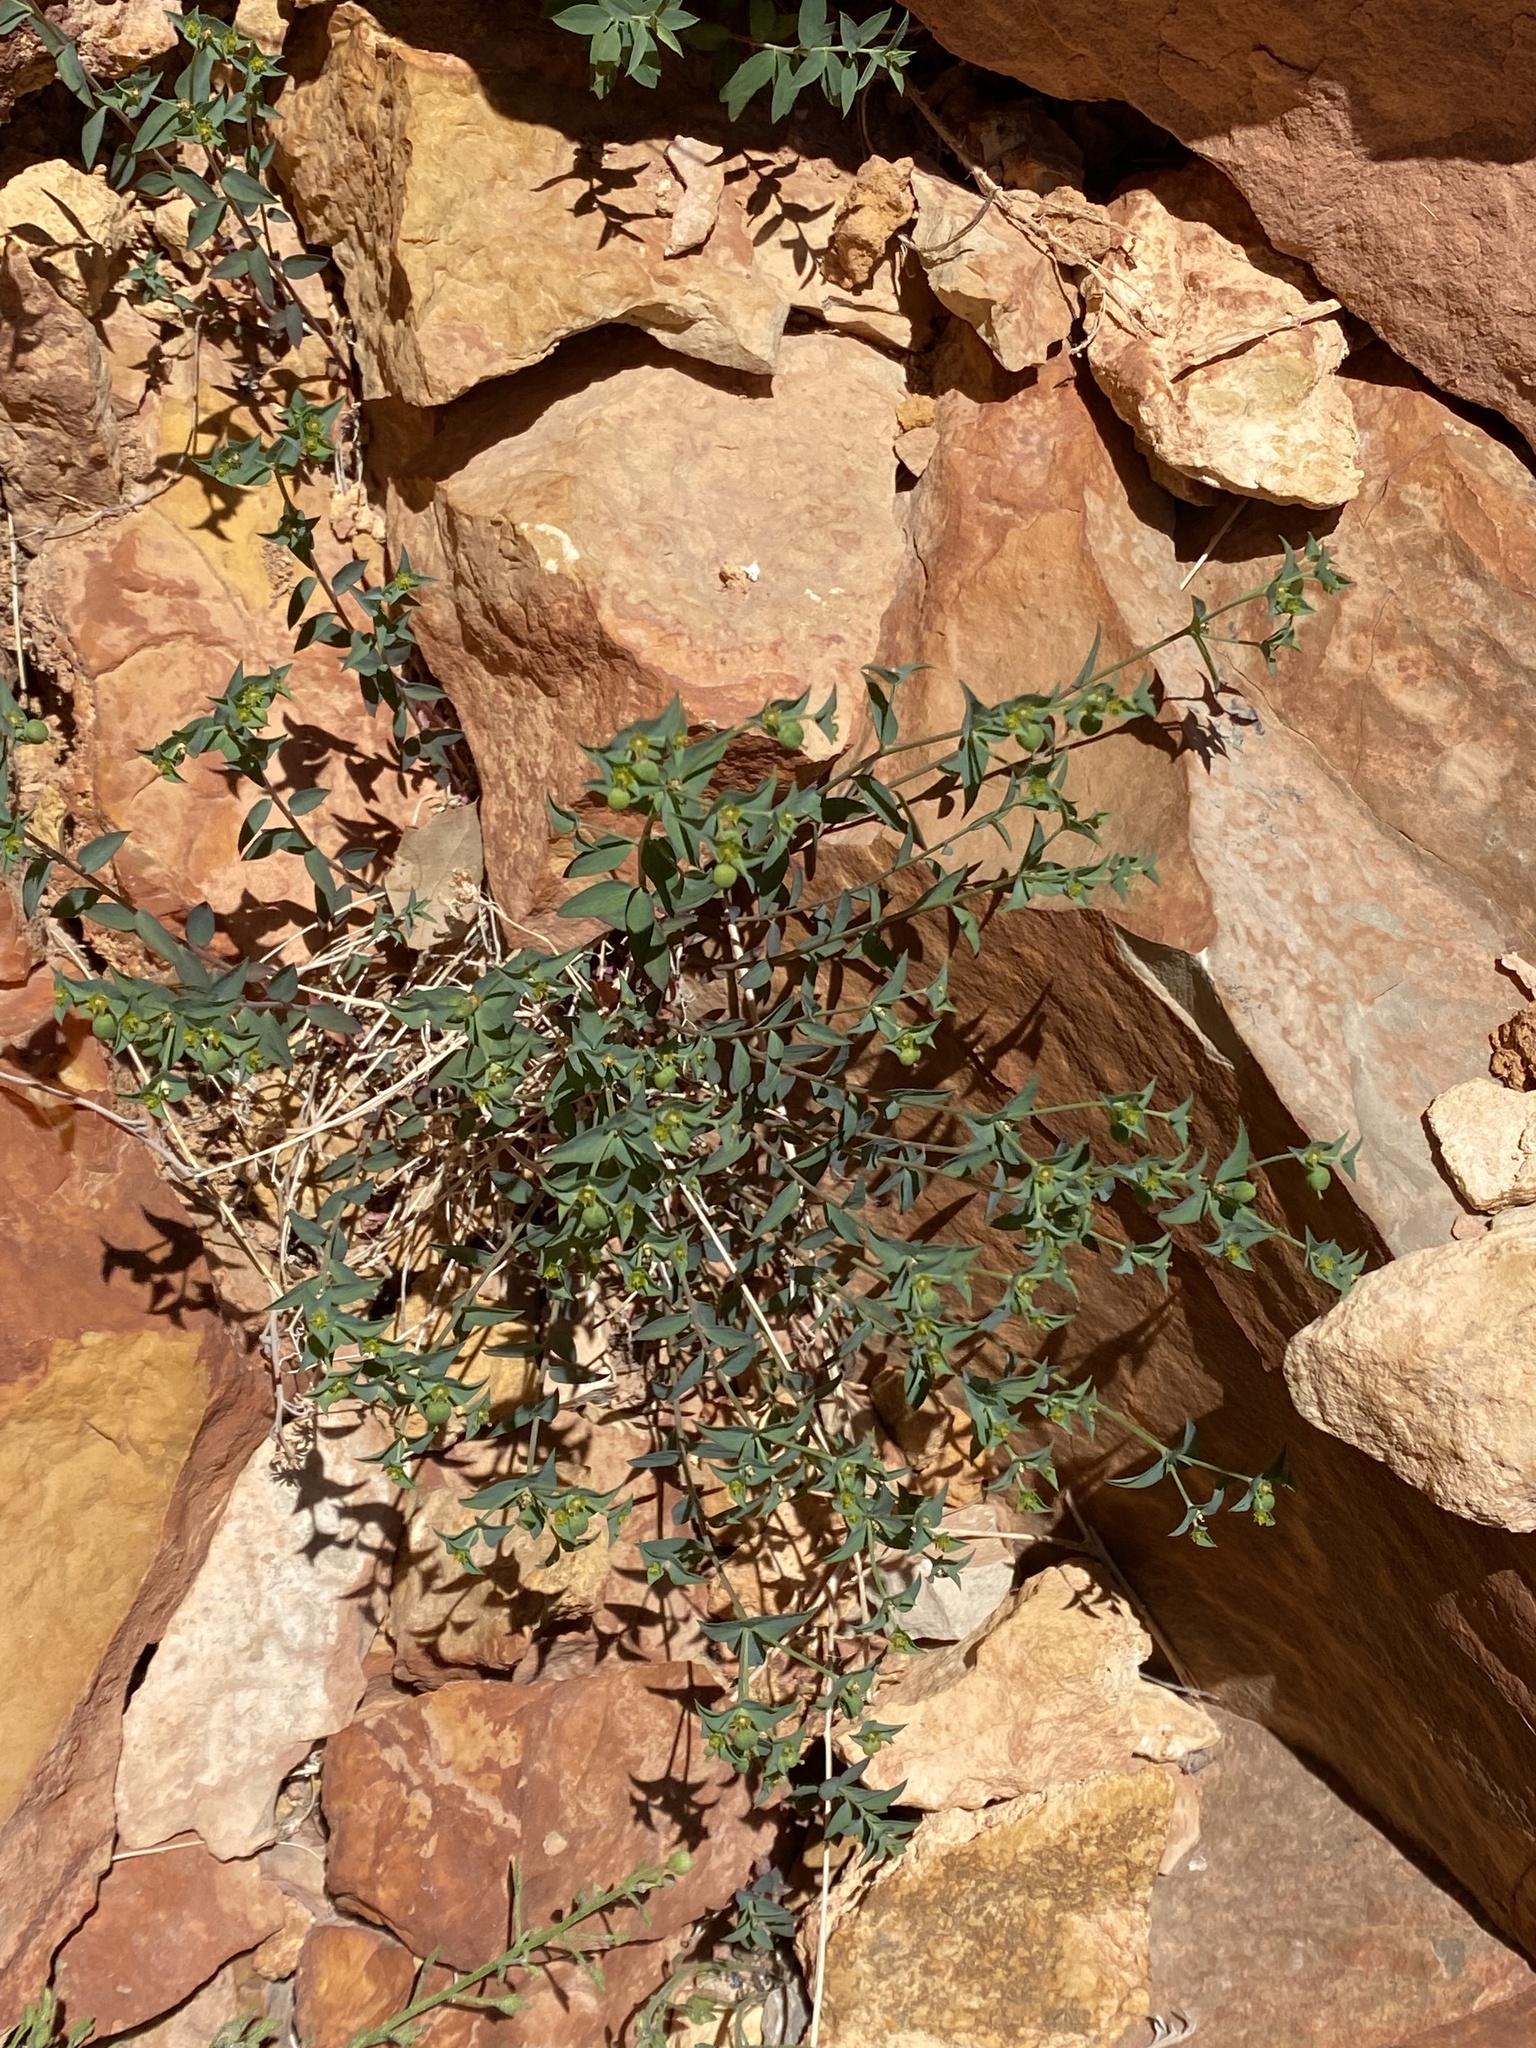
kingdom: Plantae
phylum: Tracheophyta
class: Magnoliopsida
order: Malpighiales
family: Euphorbiaceae
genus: Tithymalus
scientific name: Tithymalus
